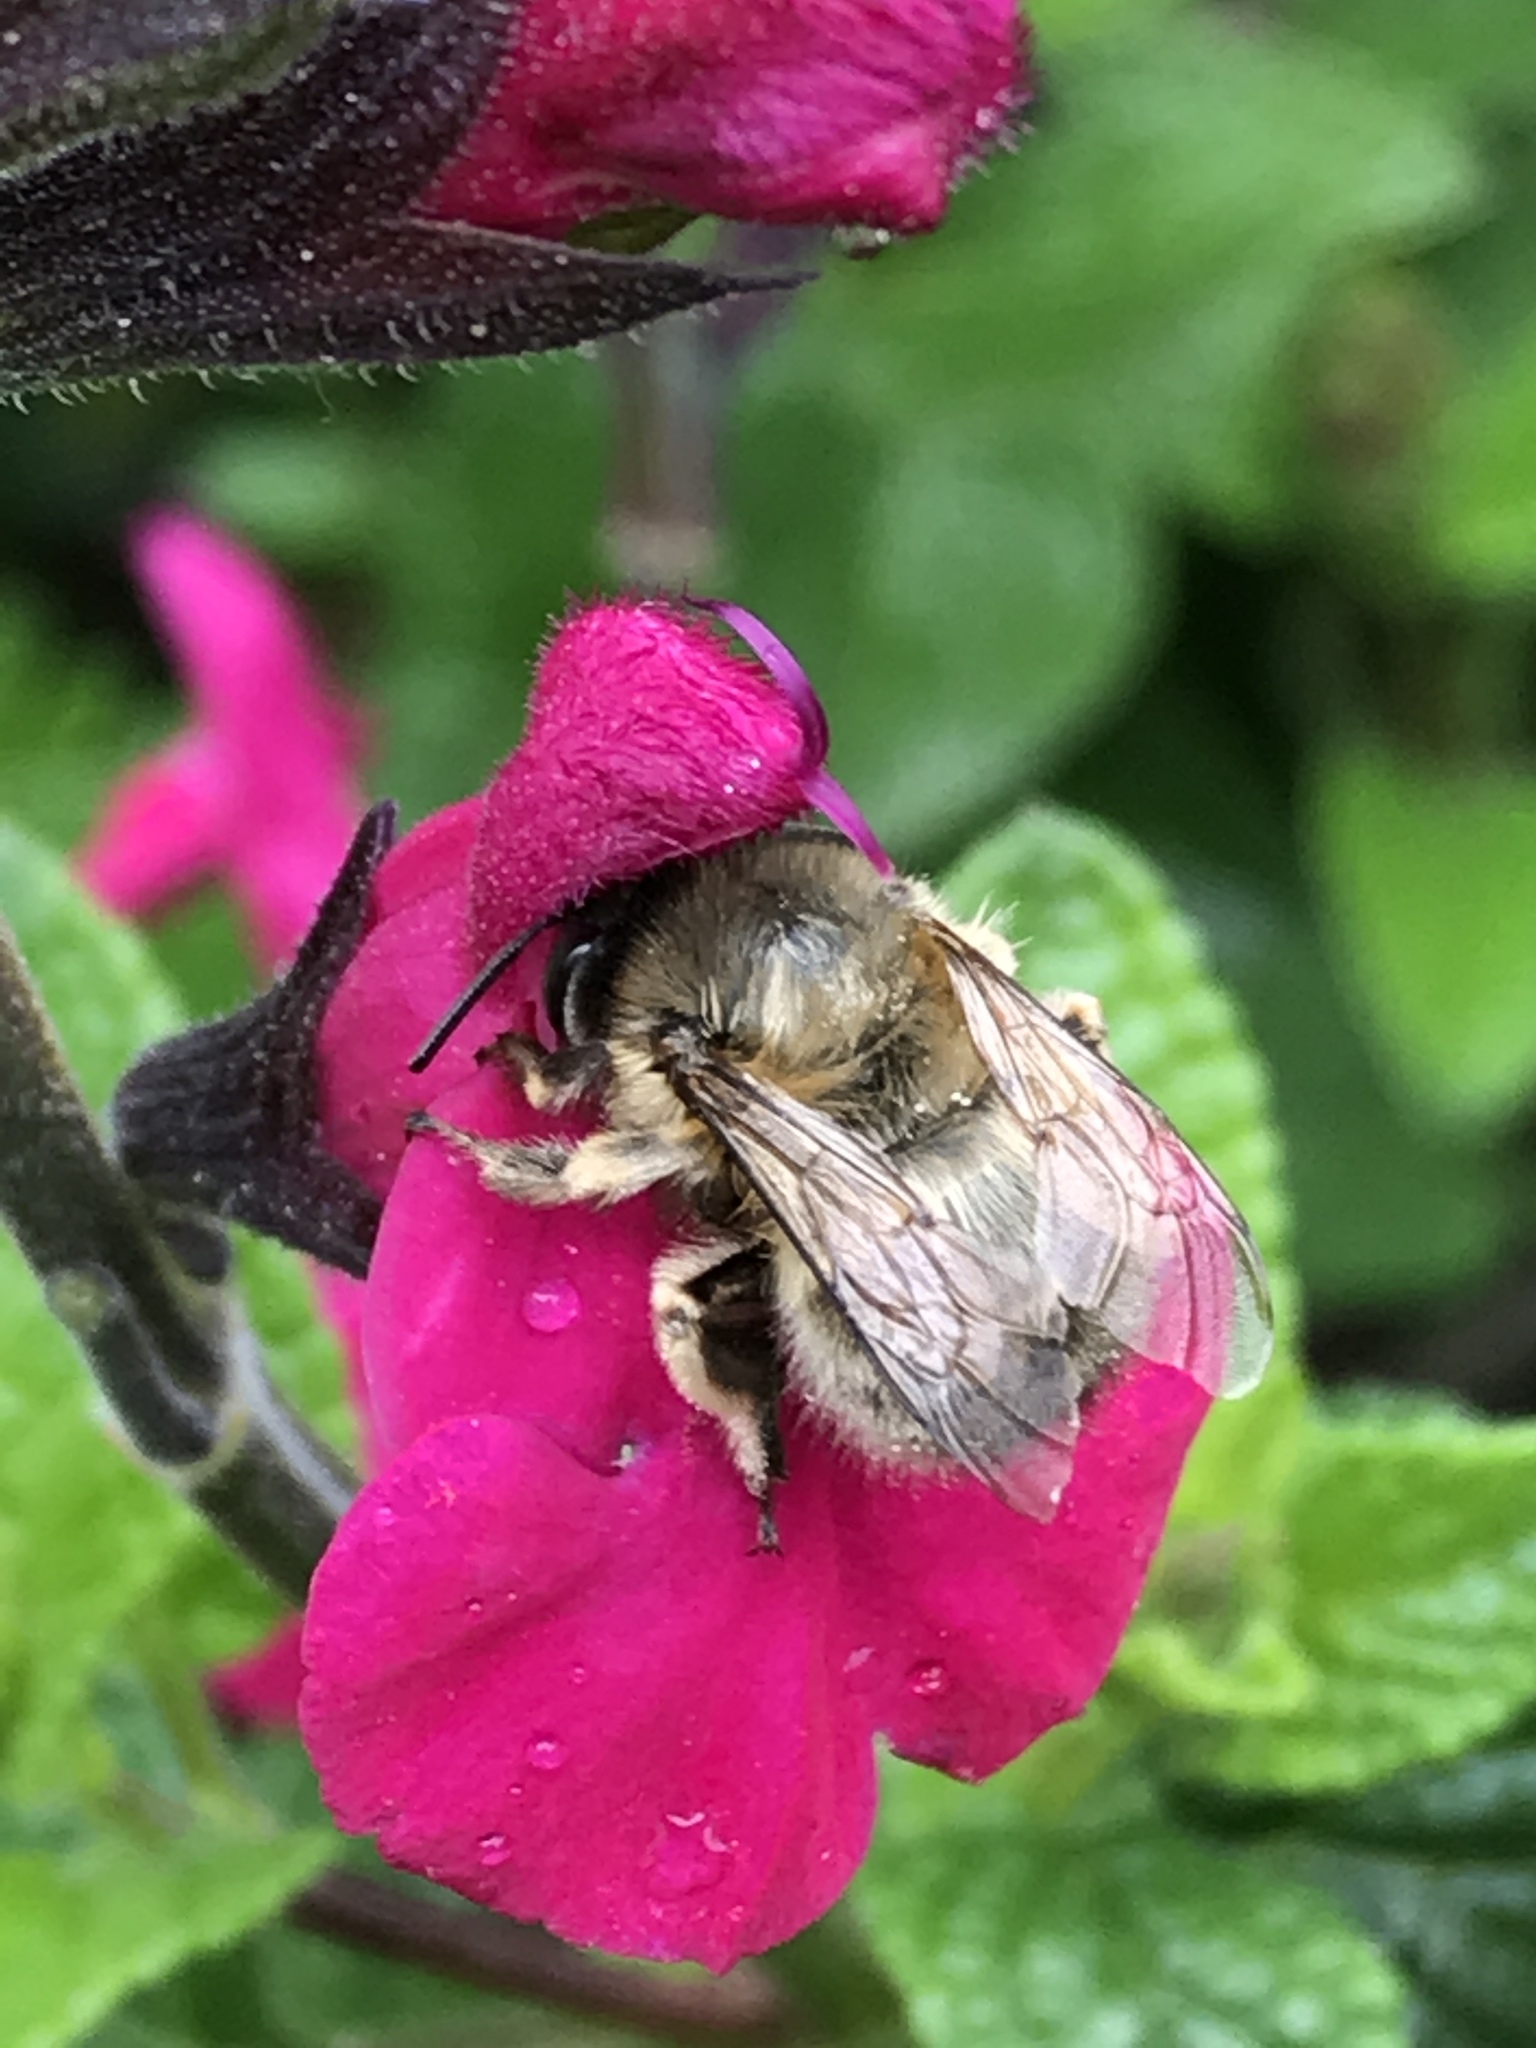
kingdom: Animalia
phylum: Arthropoda
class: Insecta
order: Hymenoptera
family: Apidae
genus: Anthophora
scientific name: Anthophora plumipes
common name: Hairy-footed flower bee
